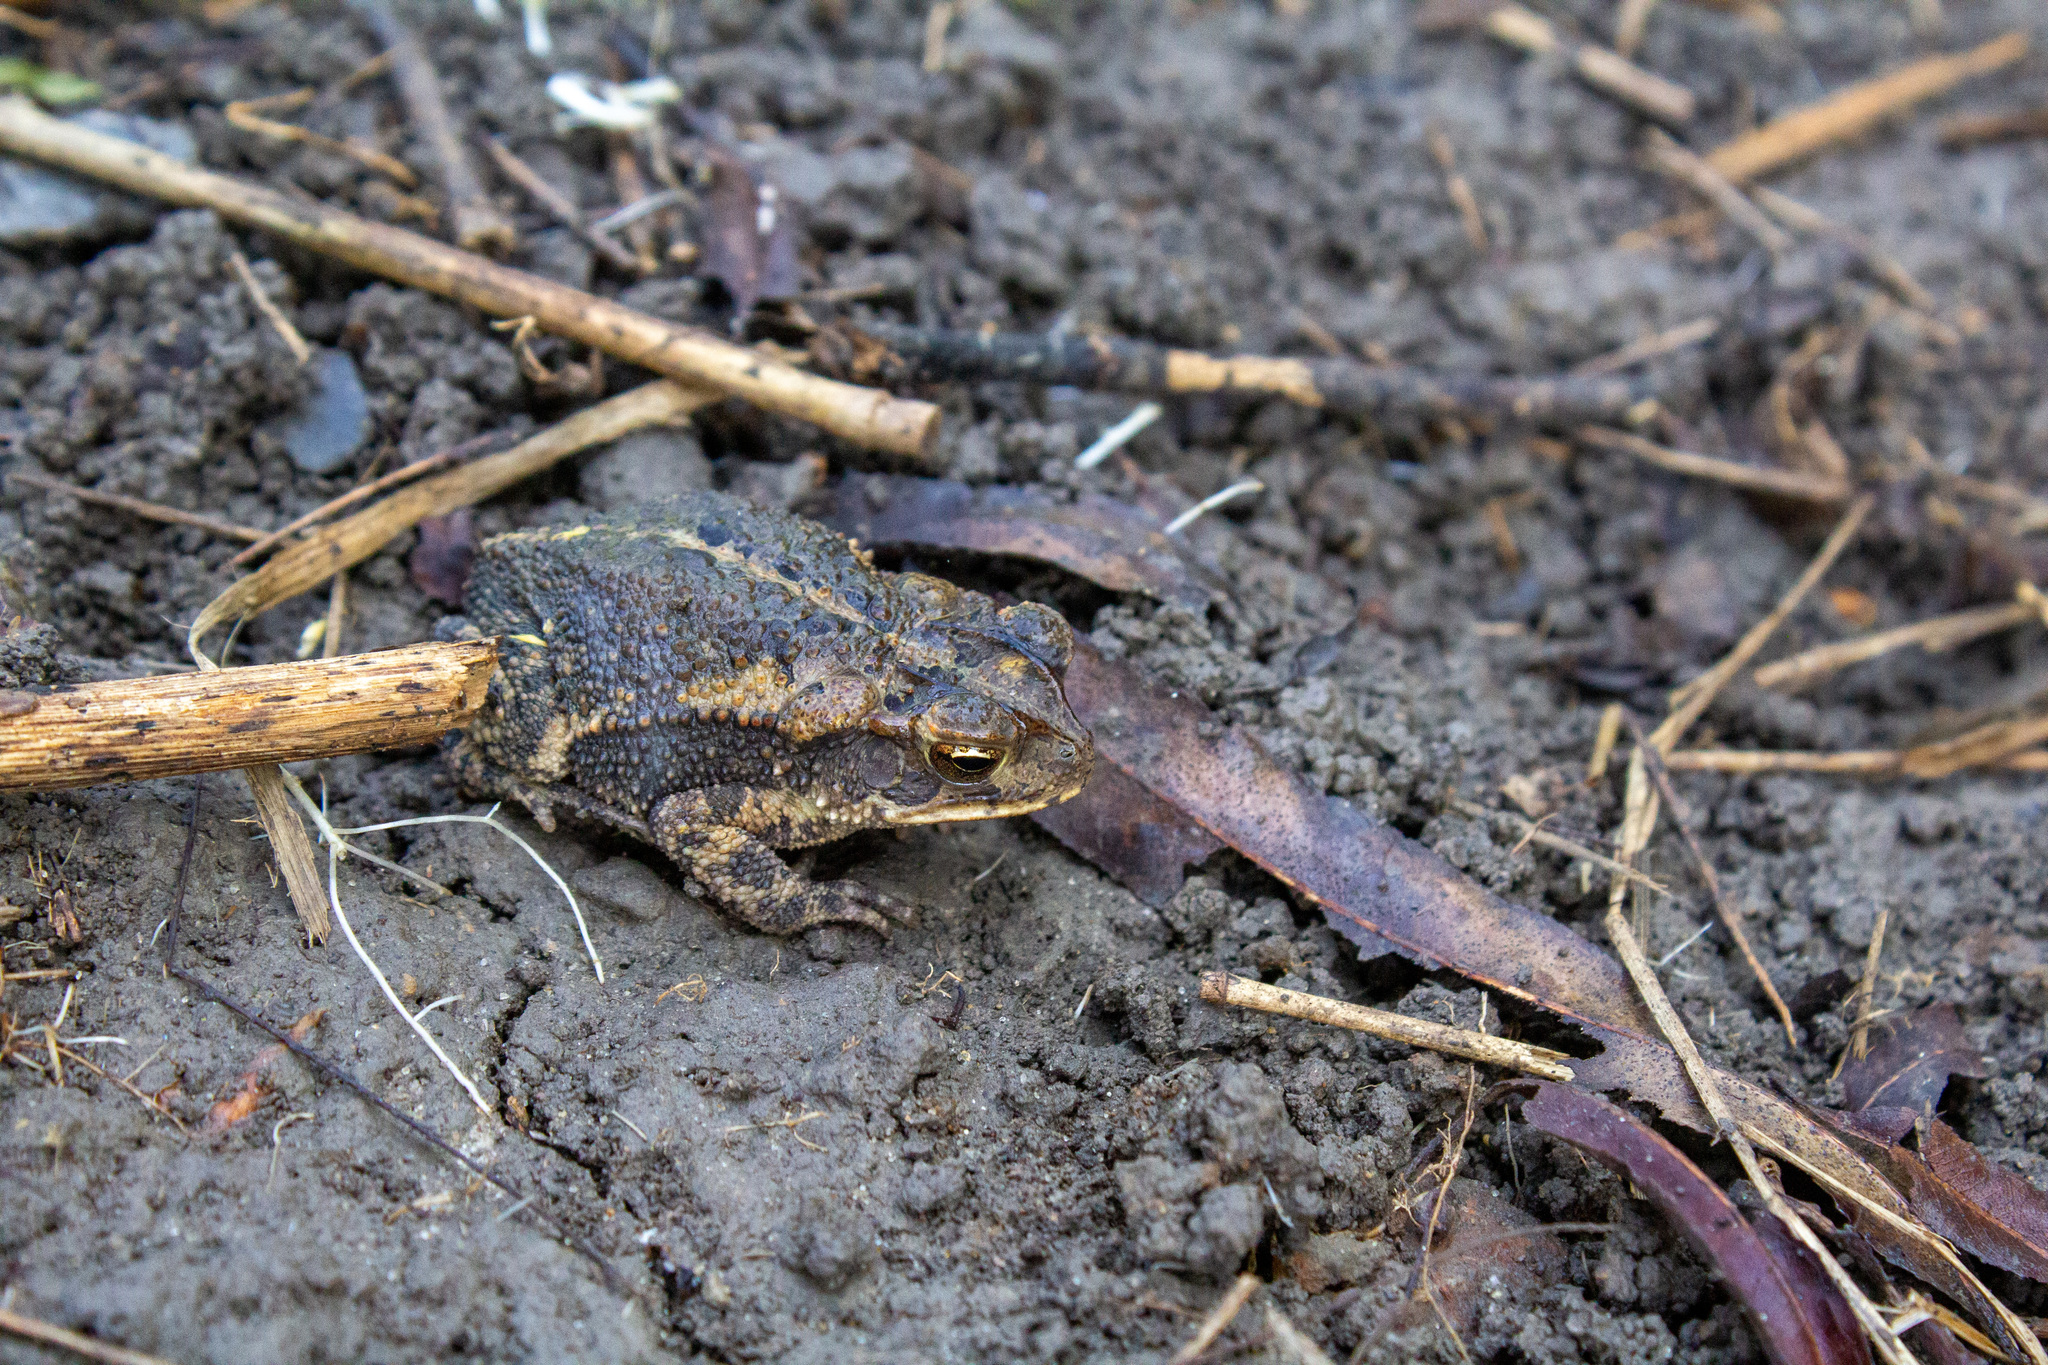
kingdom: Animalia
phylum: Chordata
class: Amphibia
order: Anura
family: Bufonidae
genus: Incilius
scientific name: Incilius nebulifer
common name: Gulf coast toad
